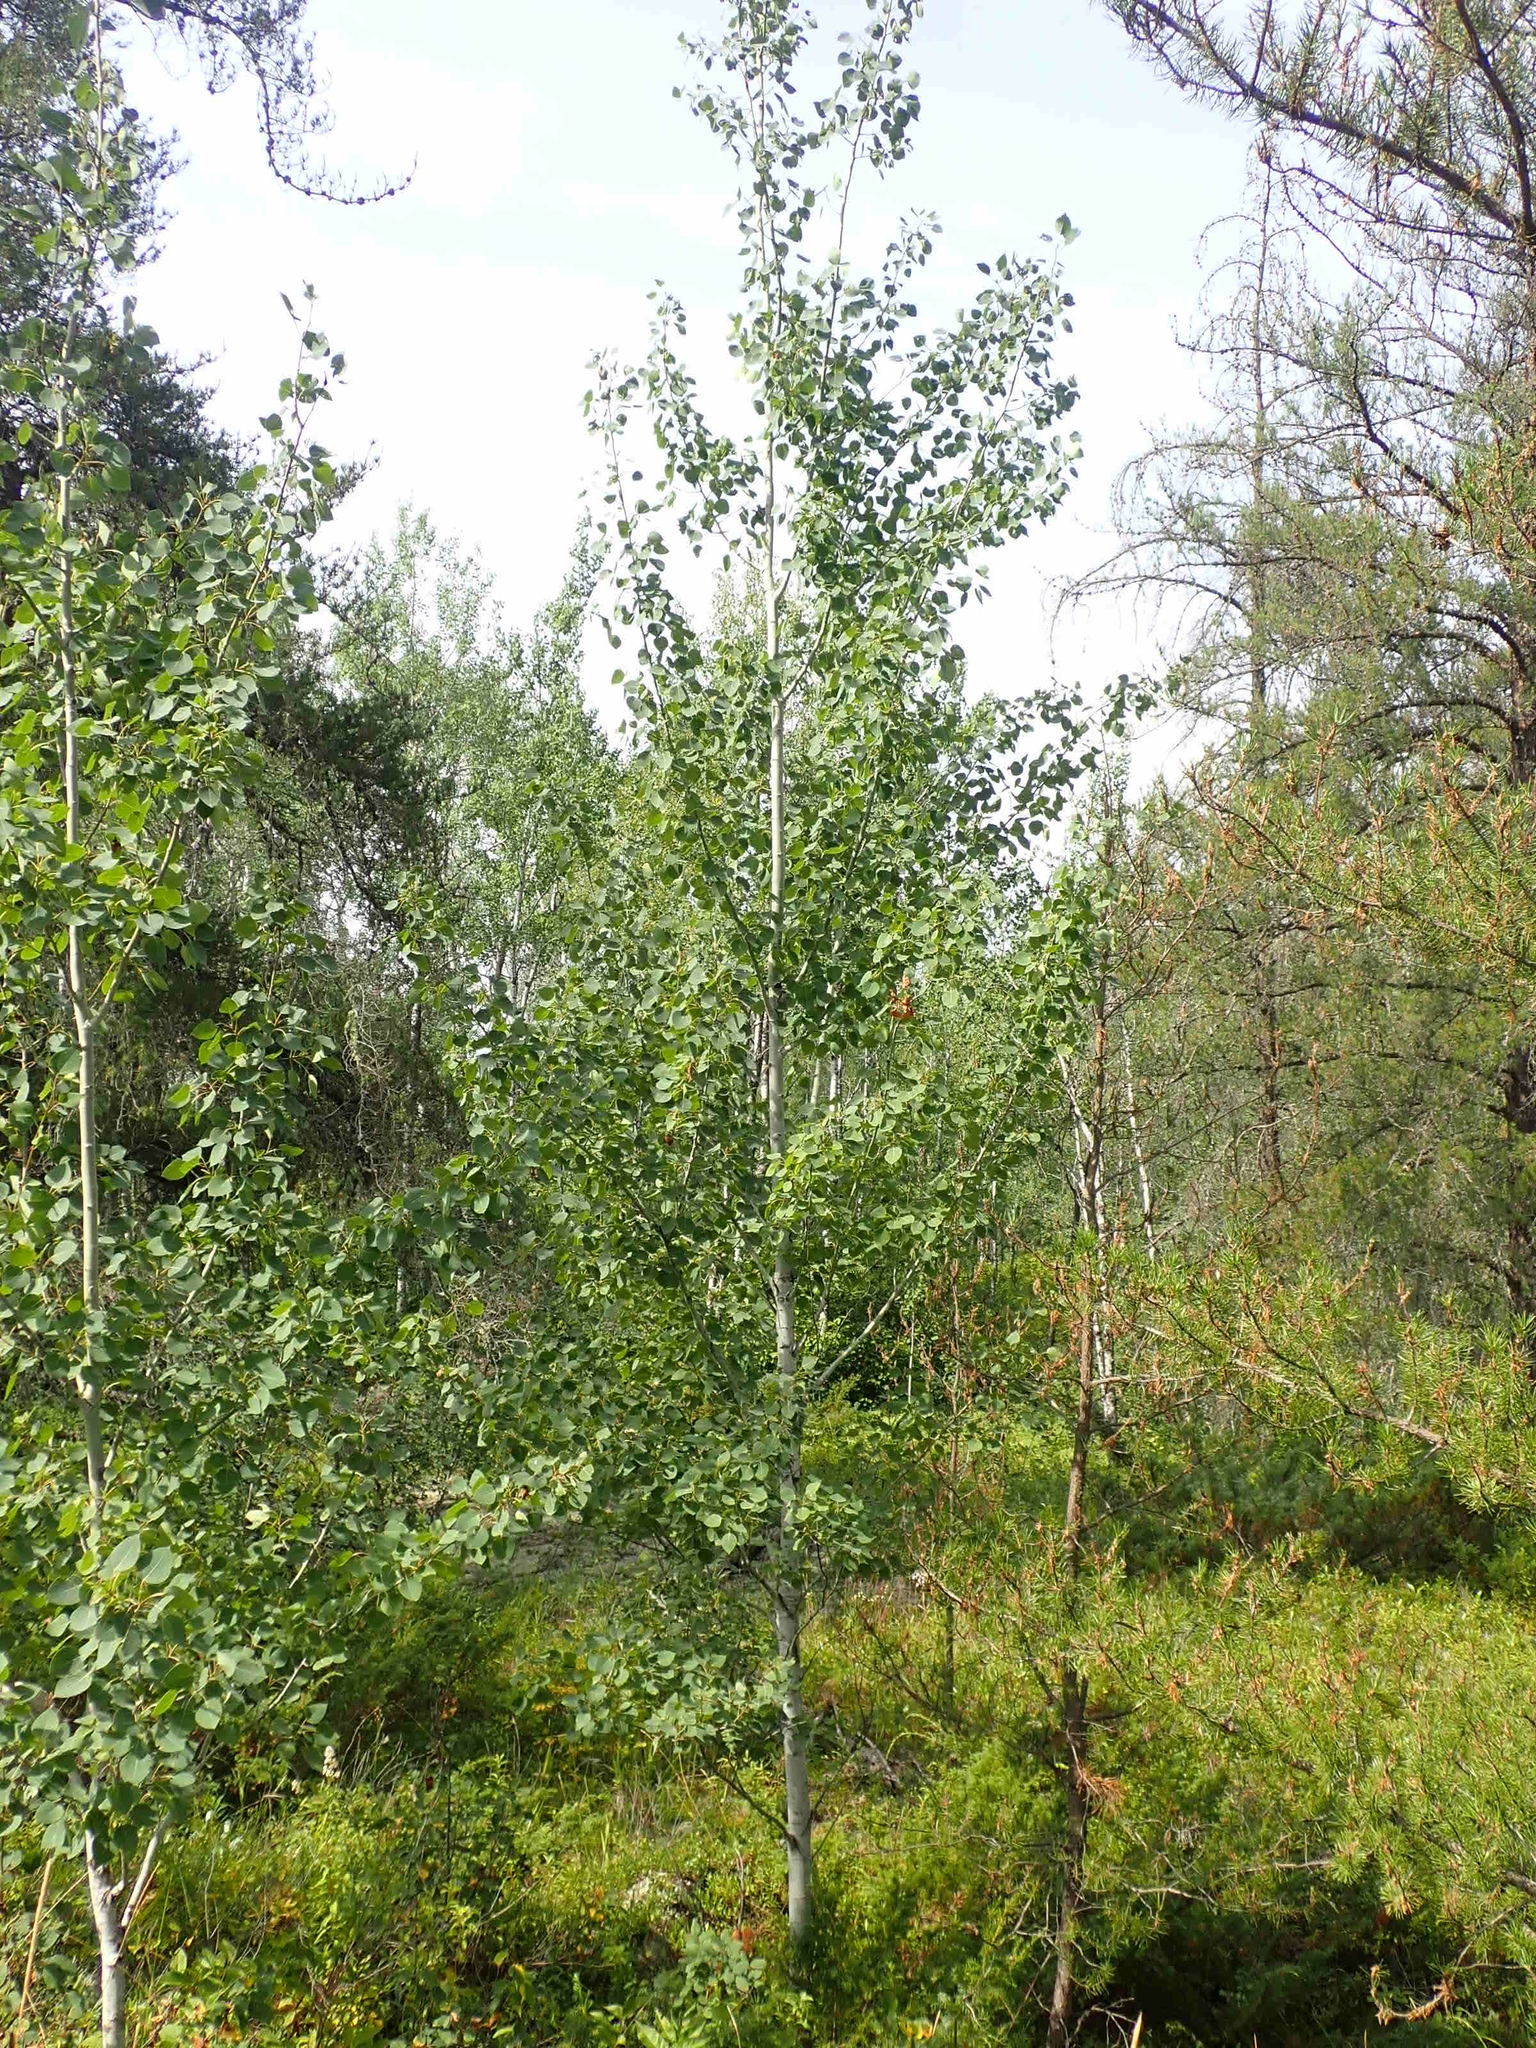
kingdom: Plantae
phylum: Tracheophyta
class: Magnoliopsida
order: Malpighiales
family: Salicaceae
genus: Populus
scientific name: Populus tremuloides
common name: Quaking aspen
